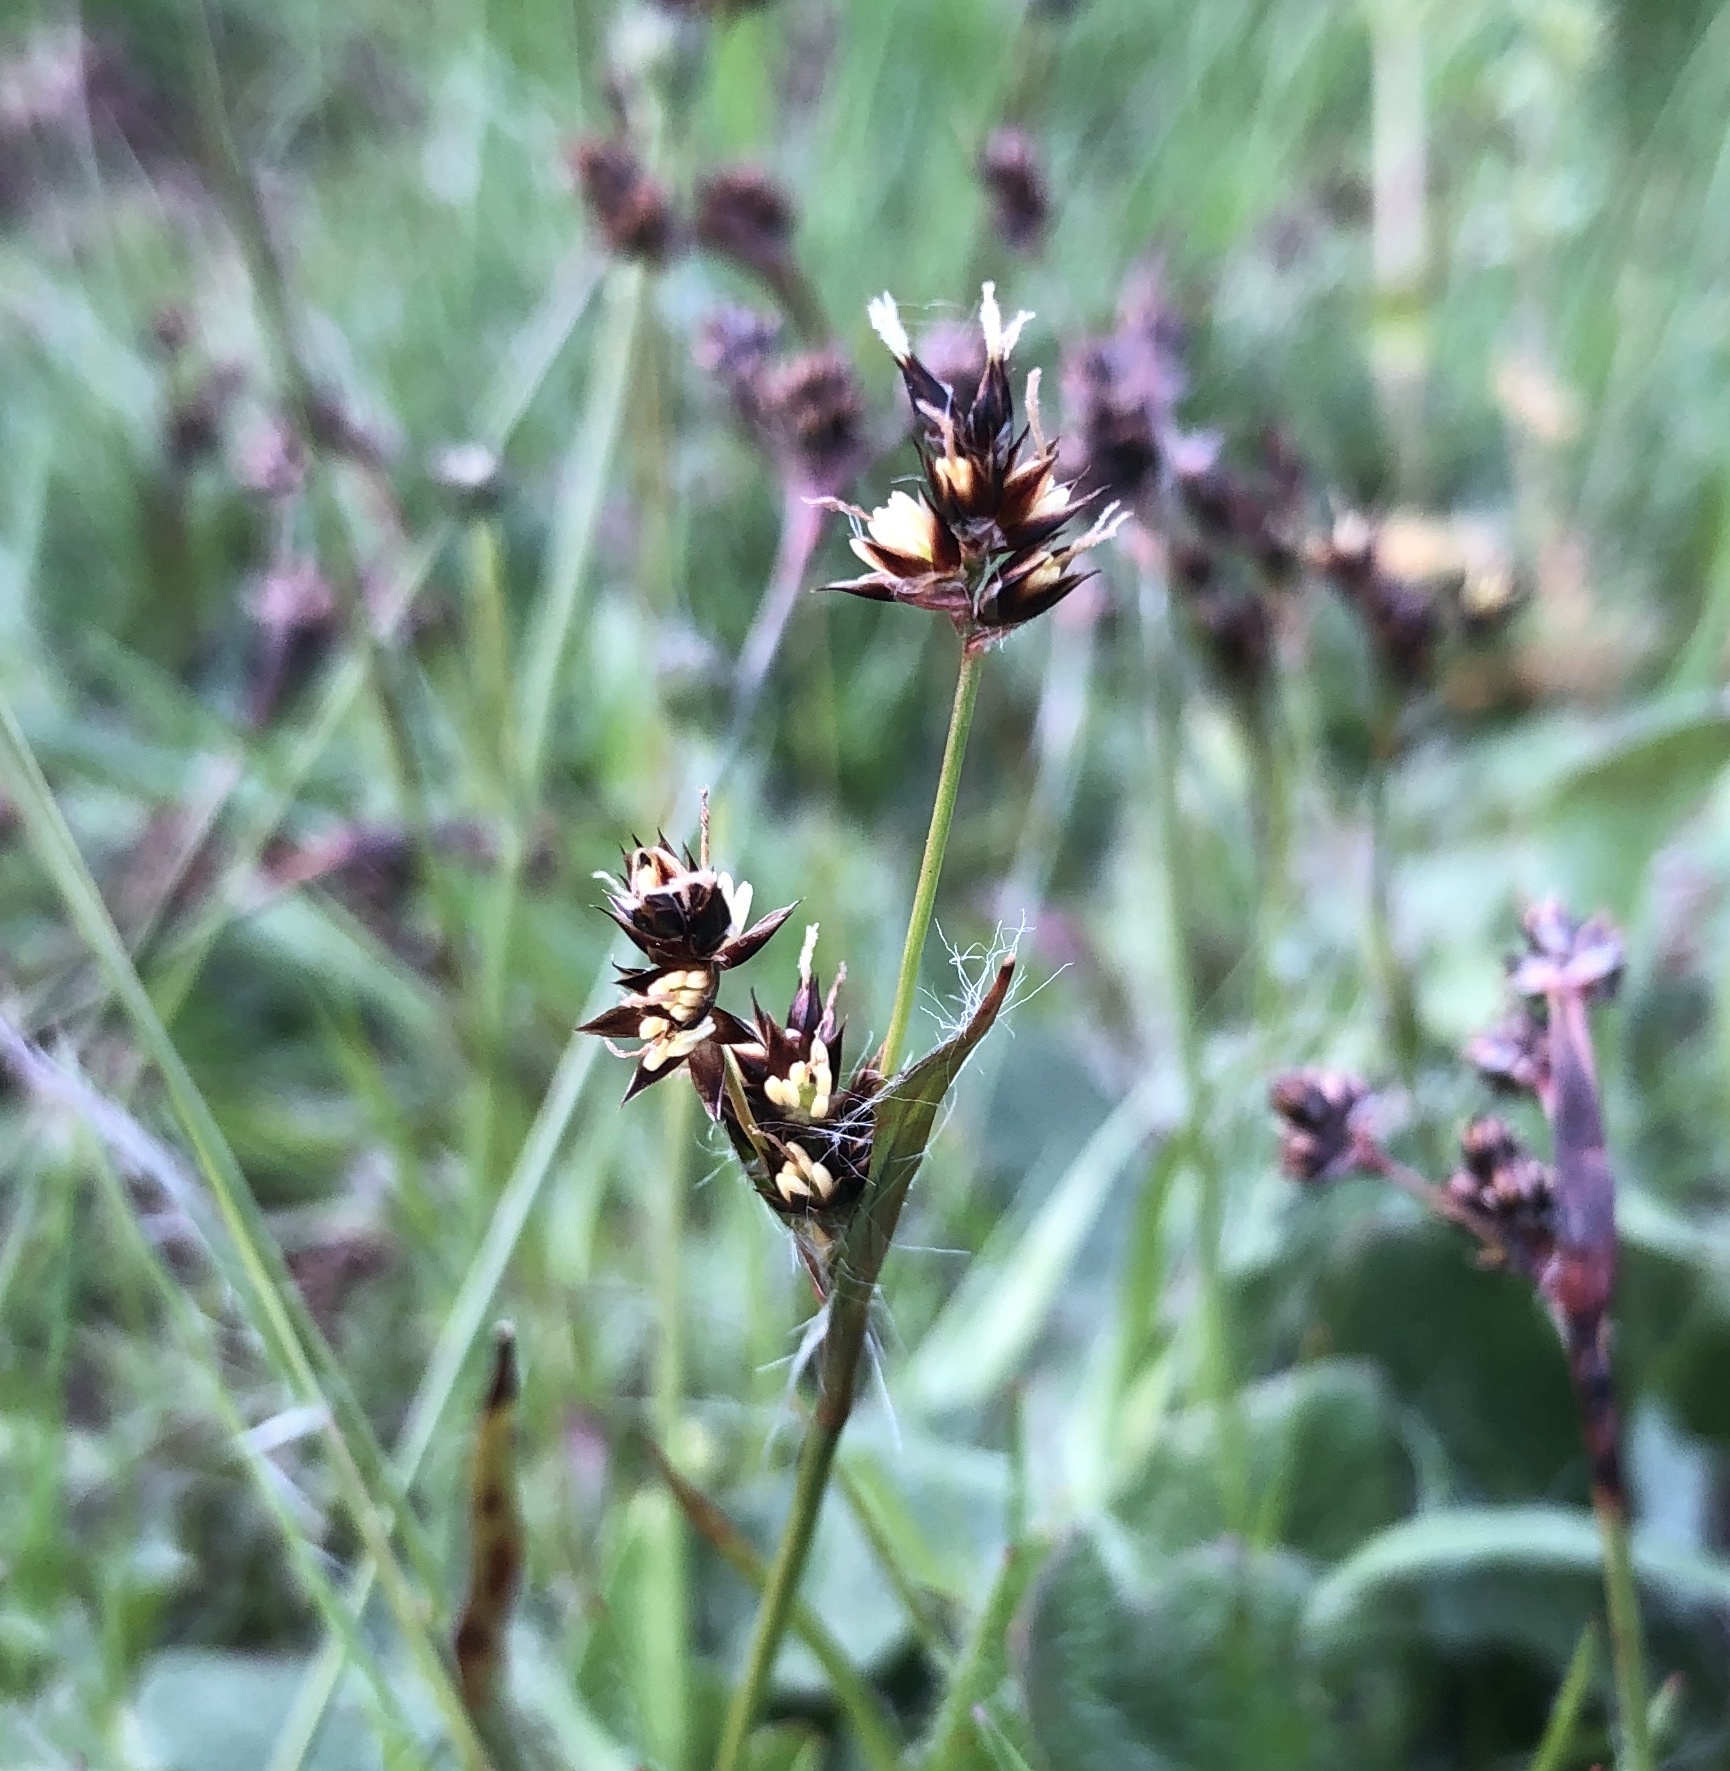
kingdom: Plantae
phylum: Tracheophyta
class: Liliopsida
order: Poales
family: Juncaceae
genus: Luzula
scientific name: Luzula campestris
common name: Field wood-rush
